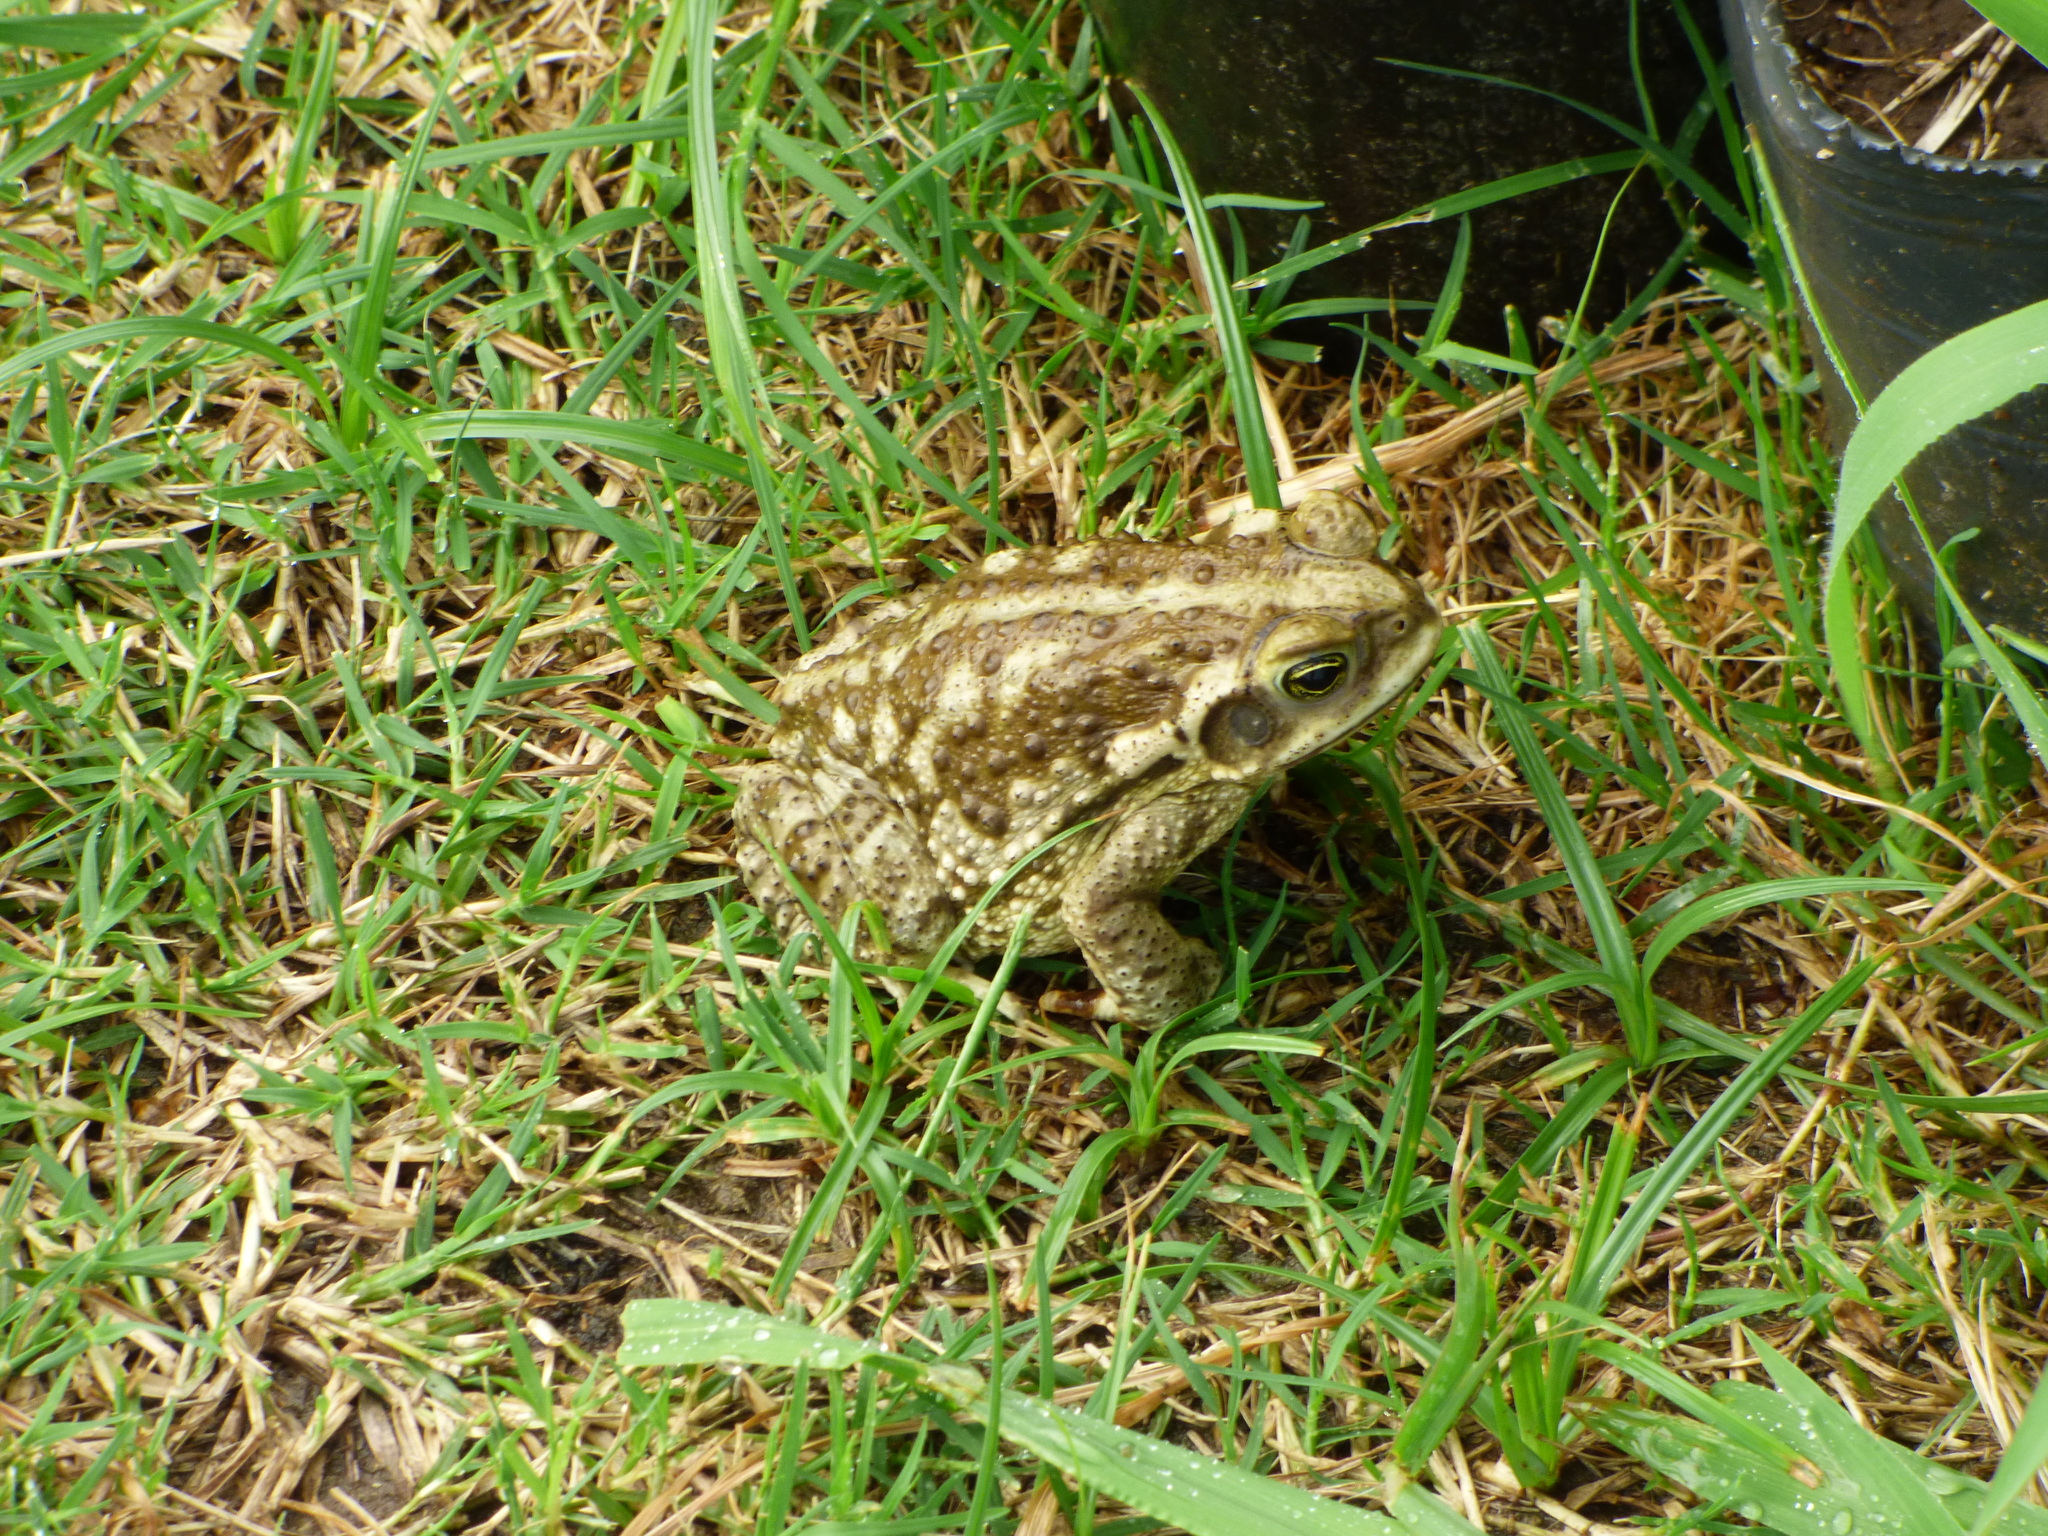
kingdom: Animalia
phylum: Chordata
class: Amphibia
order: Anura
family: Bufonidae
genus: Rhinella
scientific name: Rhinella arenarum
